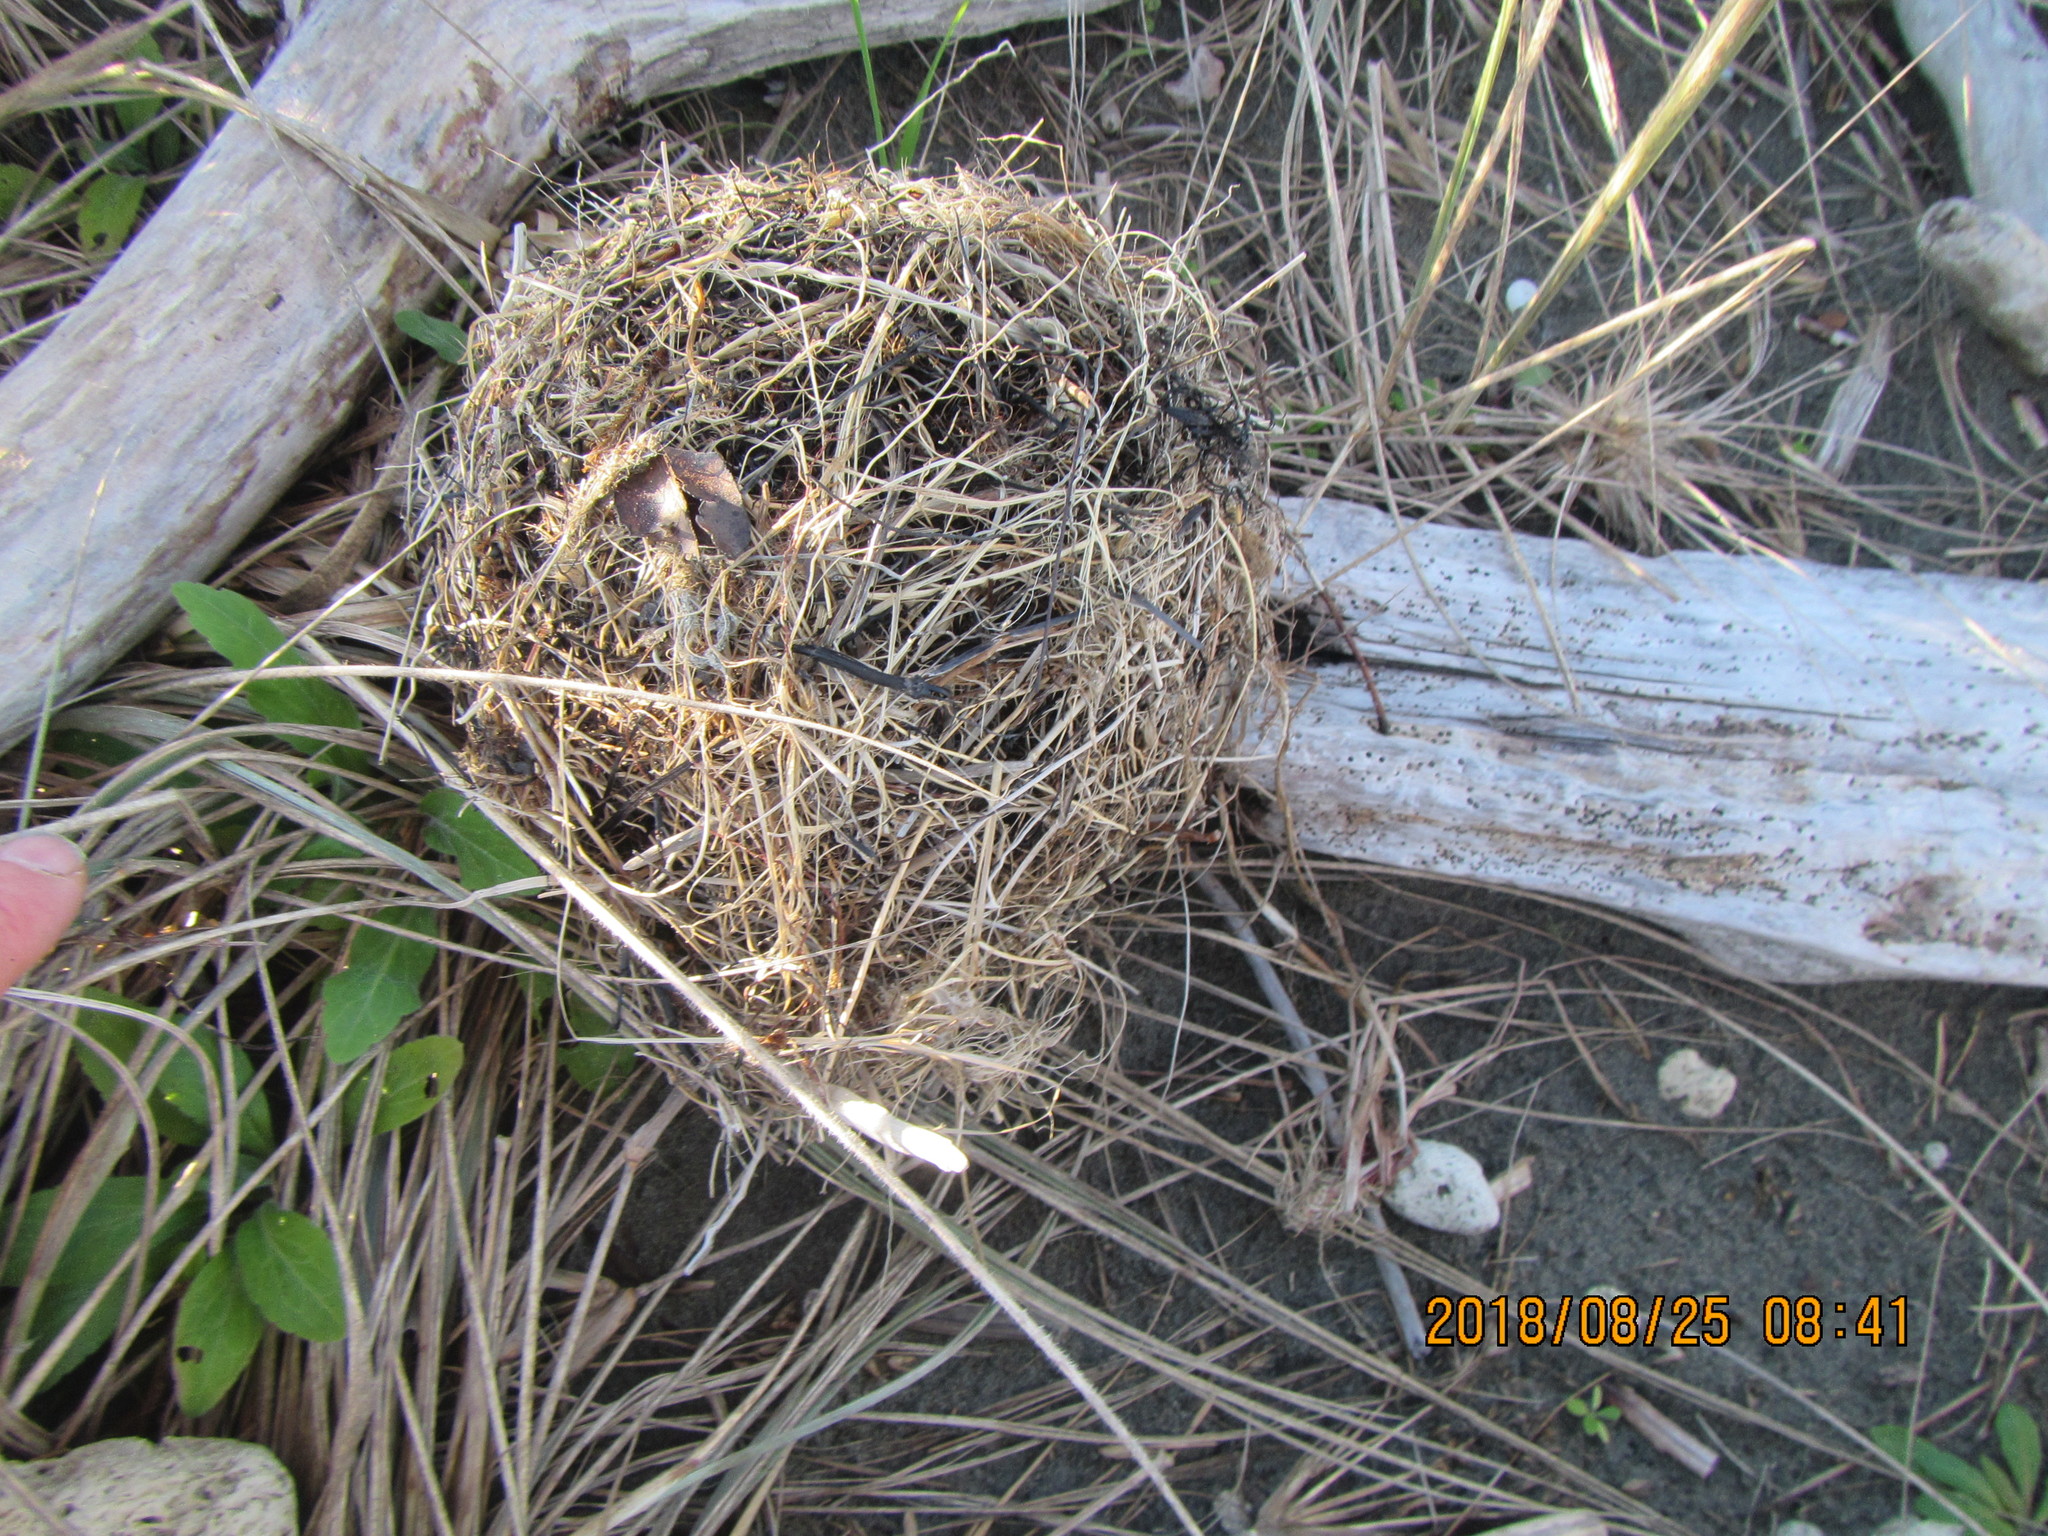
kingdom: Plantae
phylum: Tracheophyta
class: Liliopsida
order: Poales
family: Poaceae
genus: Calamagrostis
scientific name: Calamagrostis arenaria
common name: European beachgrass
